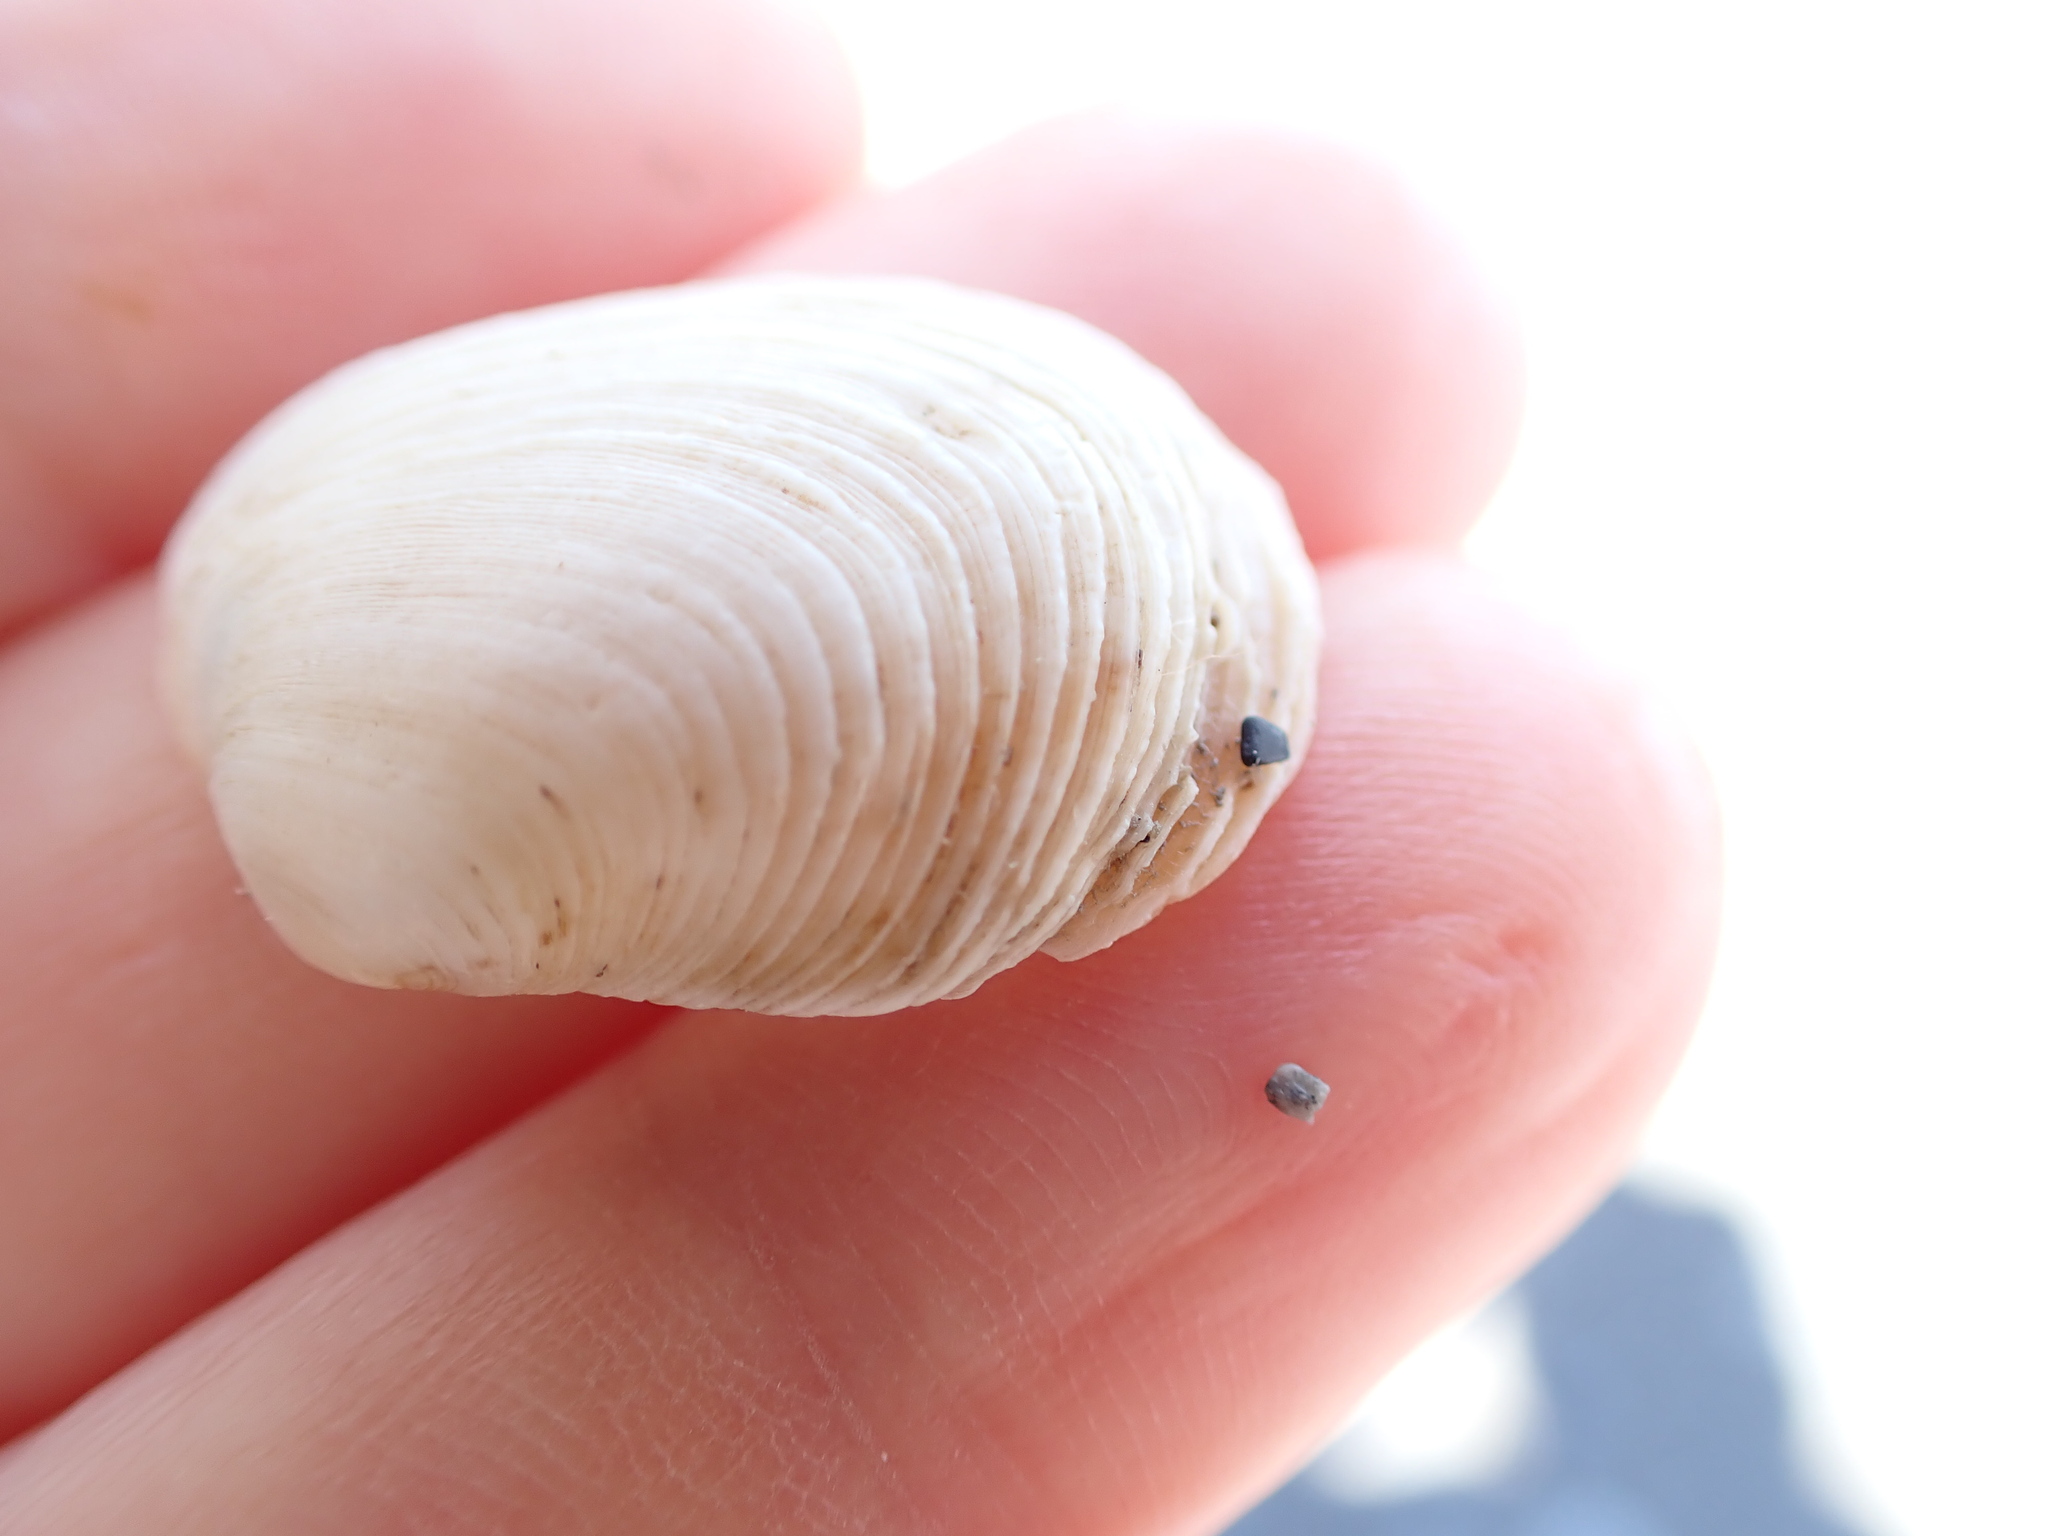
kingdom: Animalia
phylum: Mollusca
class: Bivalvia
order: Venerida
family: Veneridae
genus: Irus
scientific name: Irus reflexus
